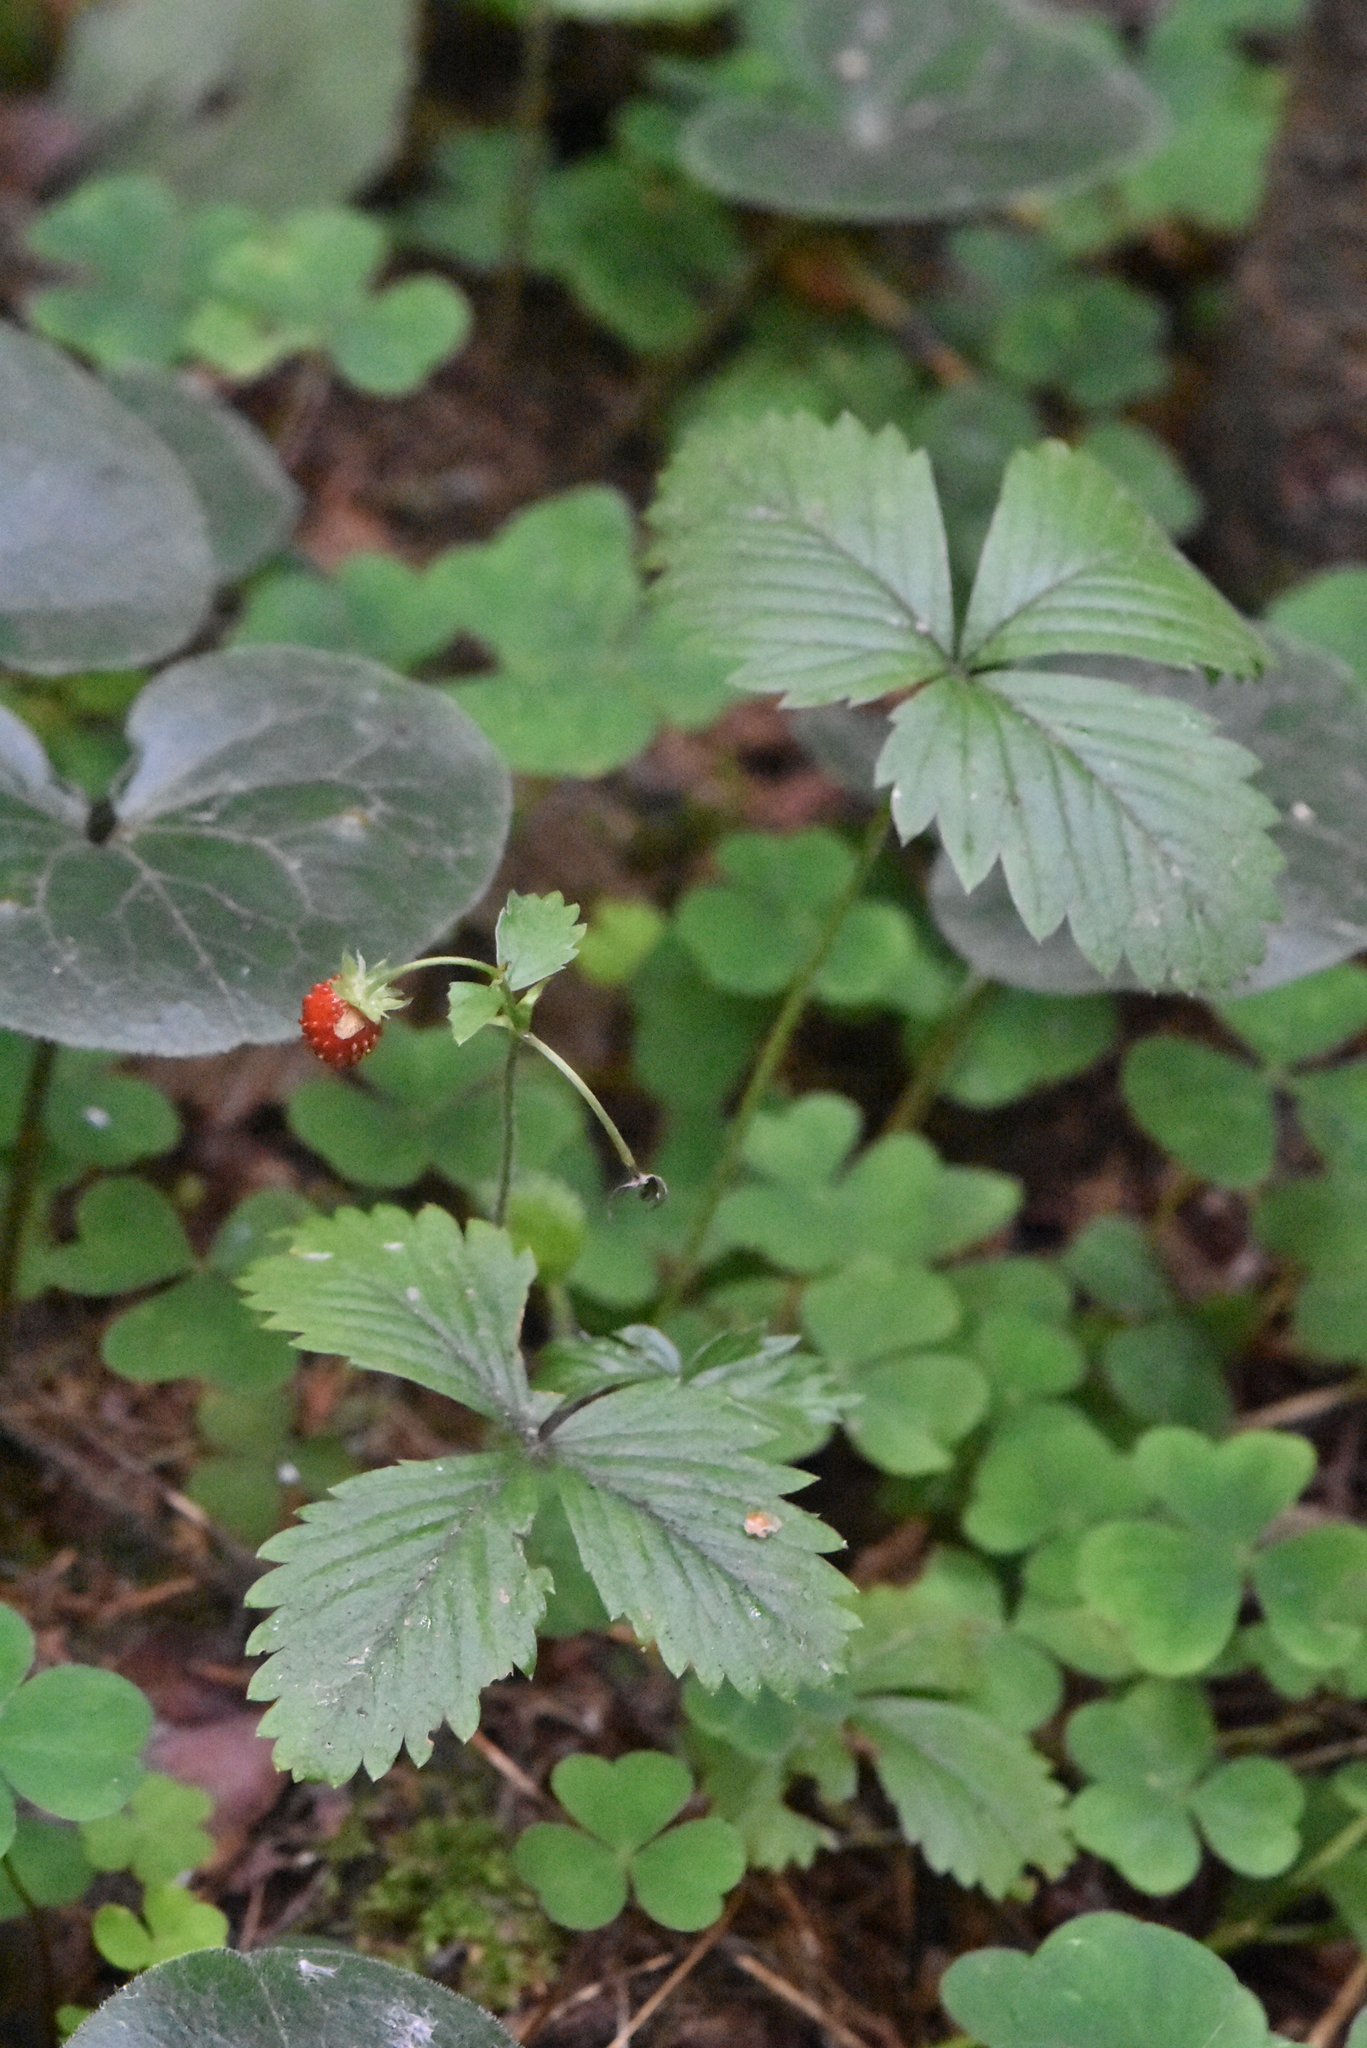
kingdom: Plantae
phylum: Tracheophyta
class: Magnoliopsida
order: Rosales
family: Rosaceae
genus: Fragaria
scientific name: Fragaria vesca
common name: Wild strawberry
